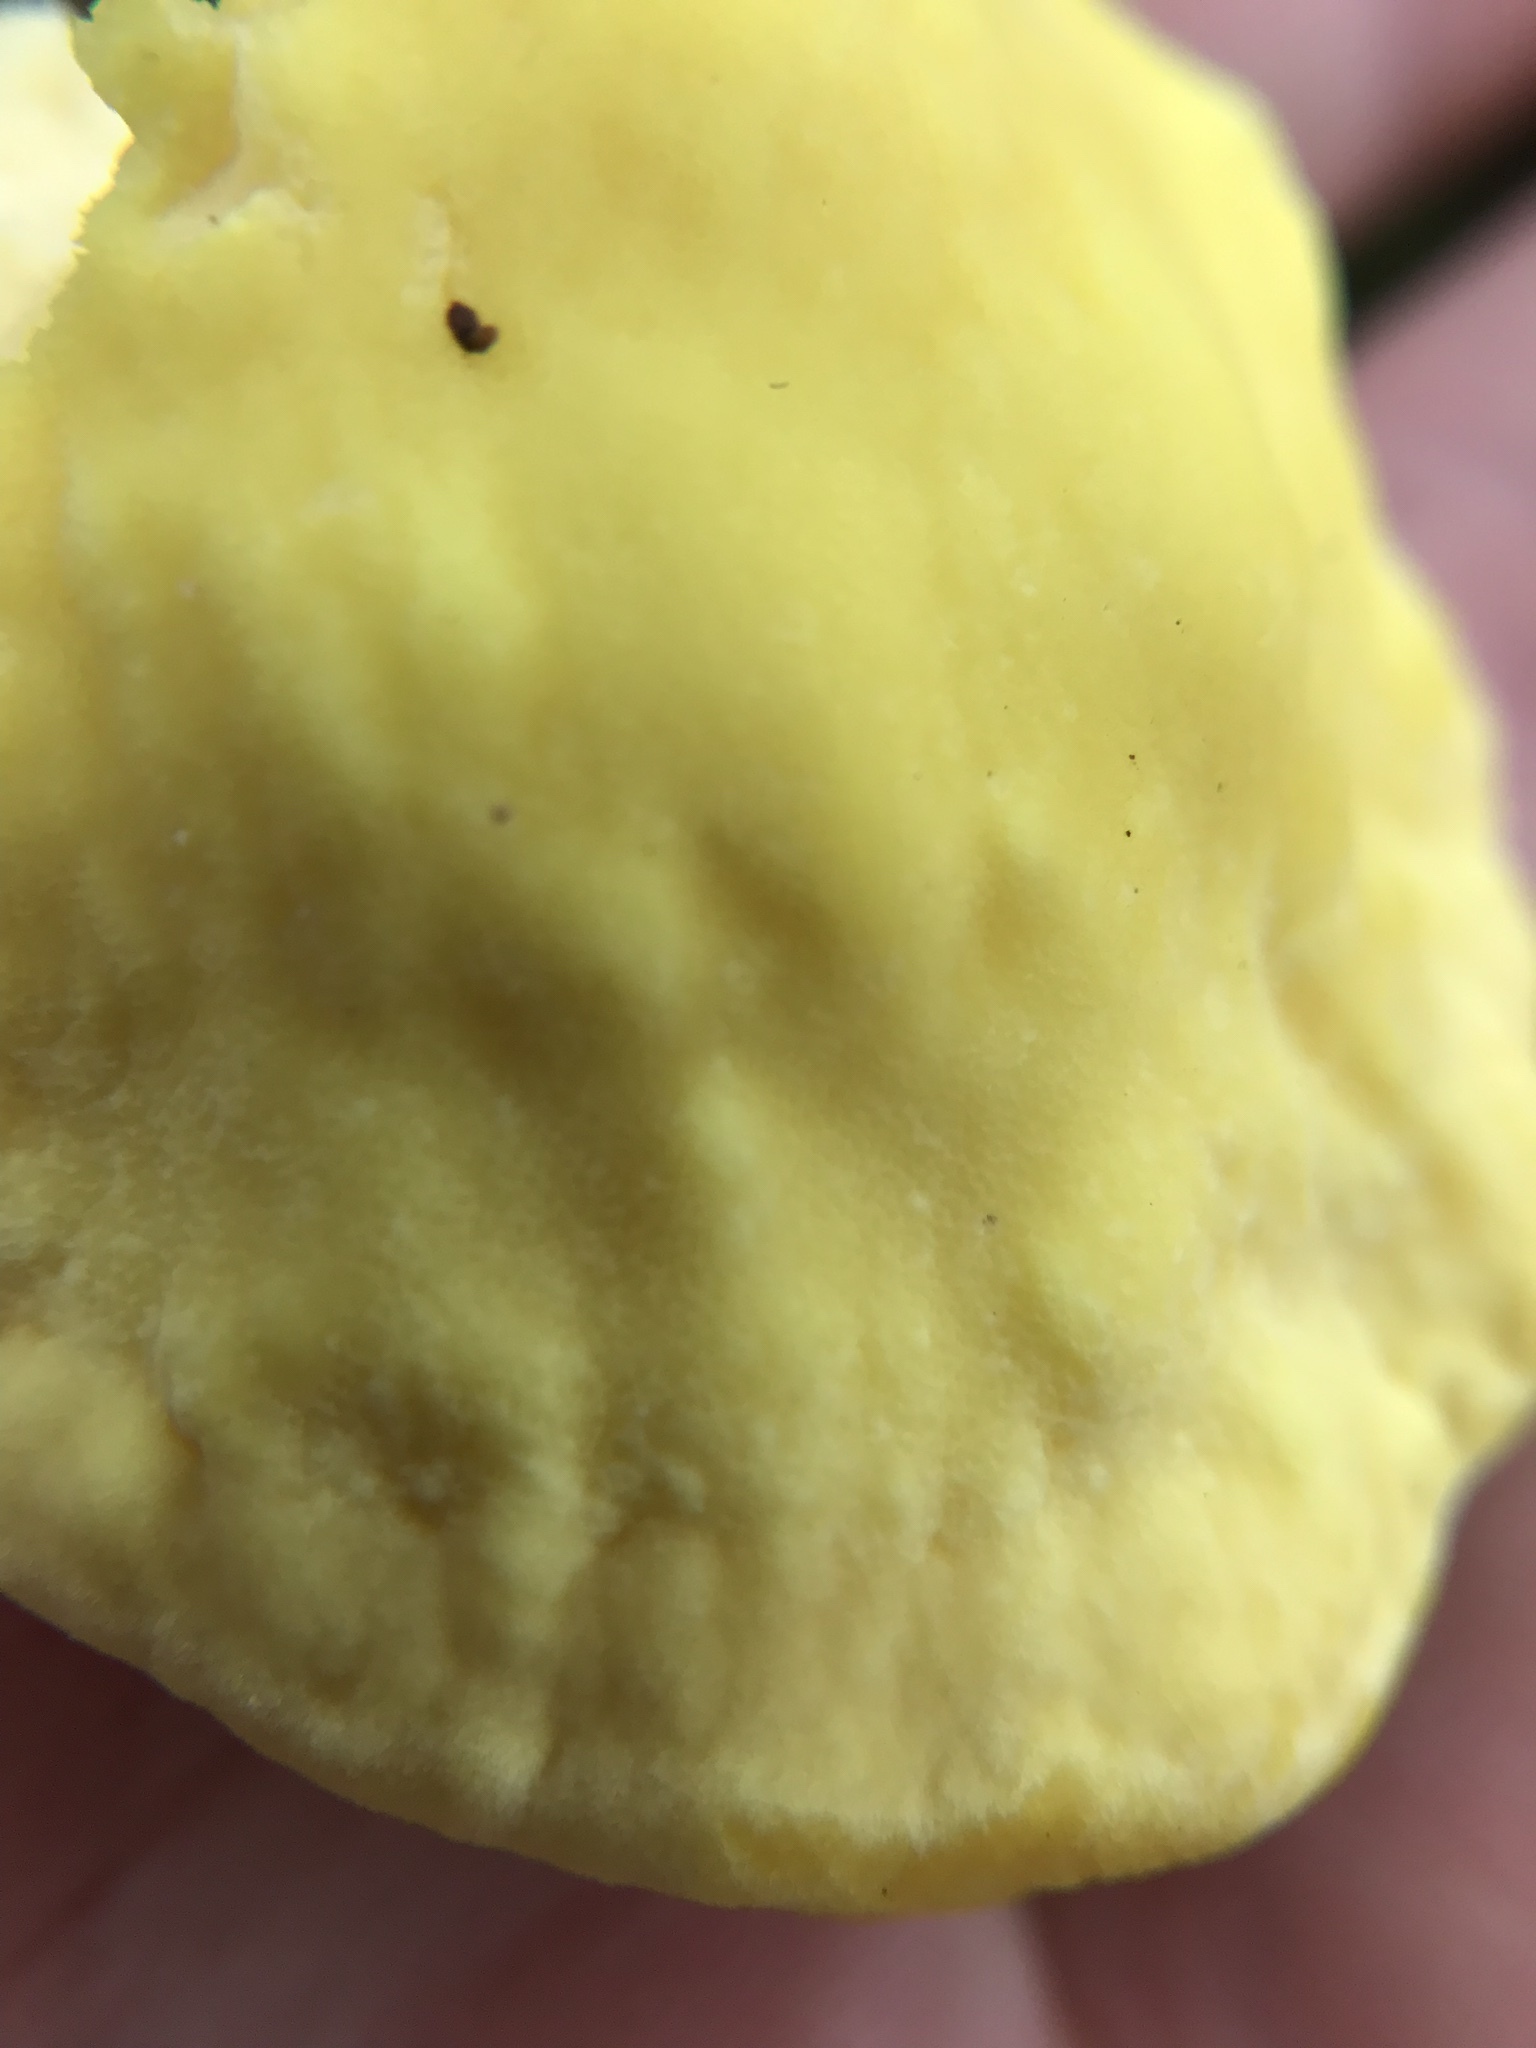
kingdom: Fungi
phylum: Basidiomycota
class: Agaricomycetes
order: Polyporales
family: Laetiporaceae
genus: Laetiporus
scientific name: Laetiporus sulphureus
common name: Chicken of the woods
